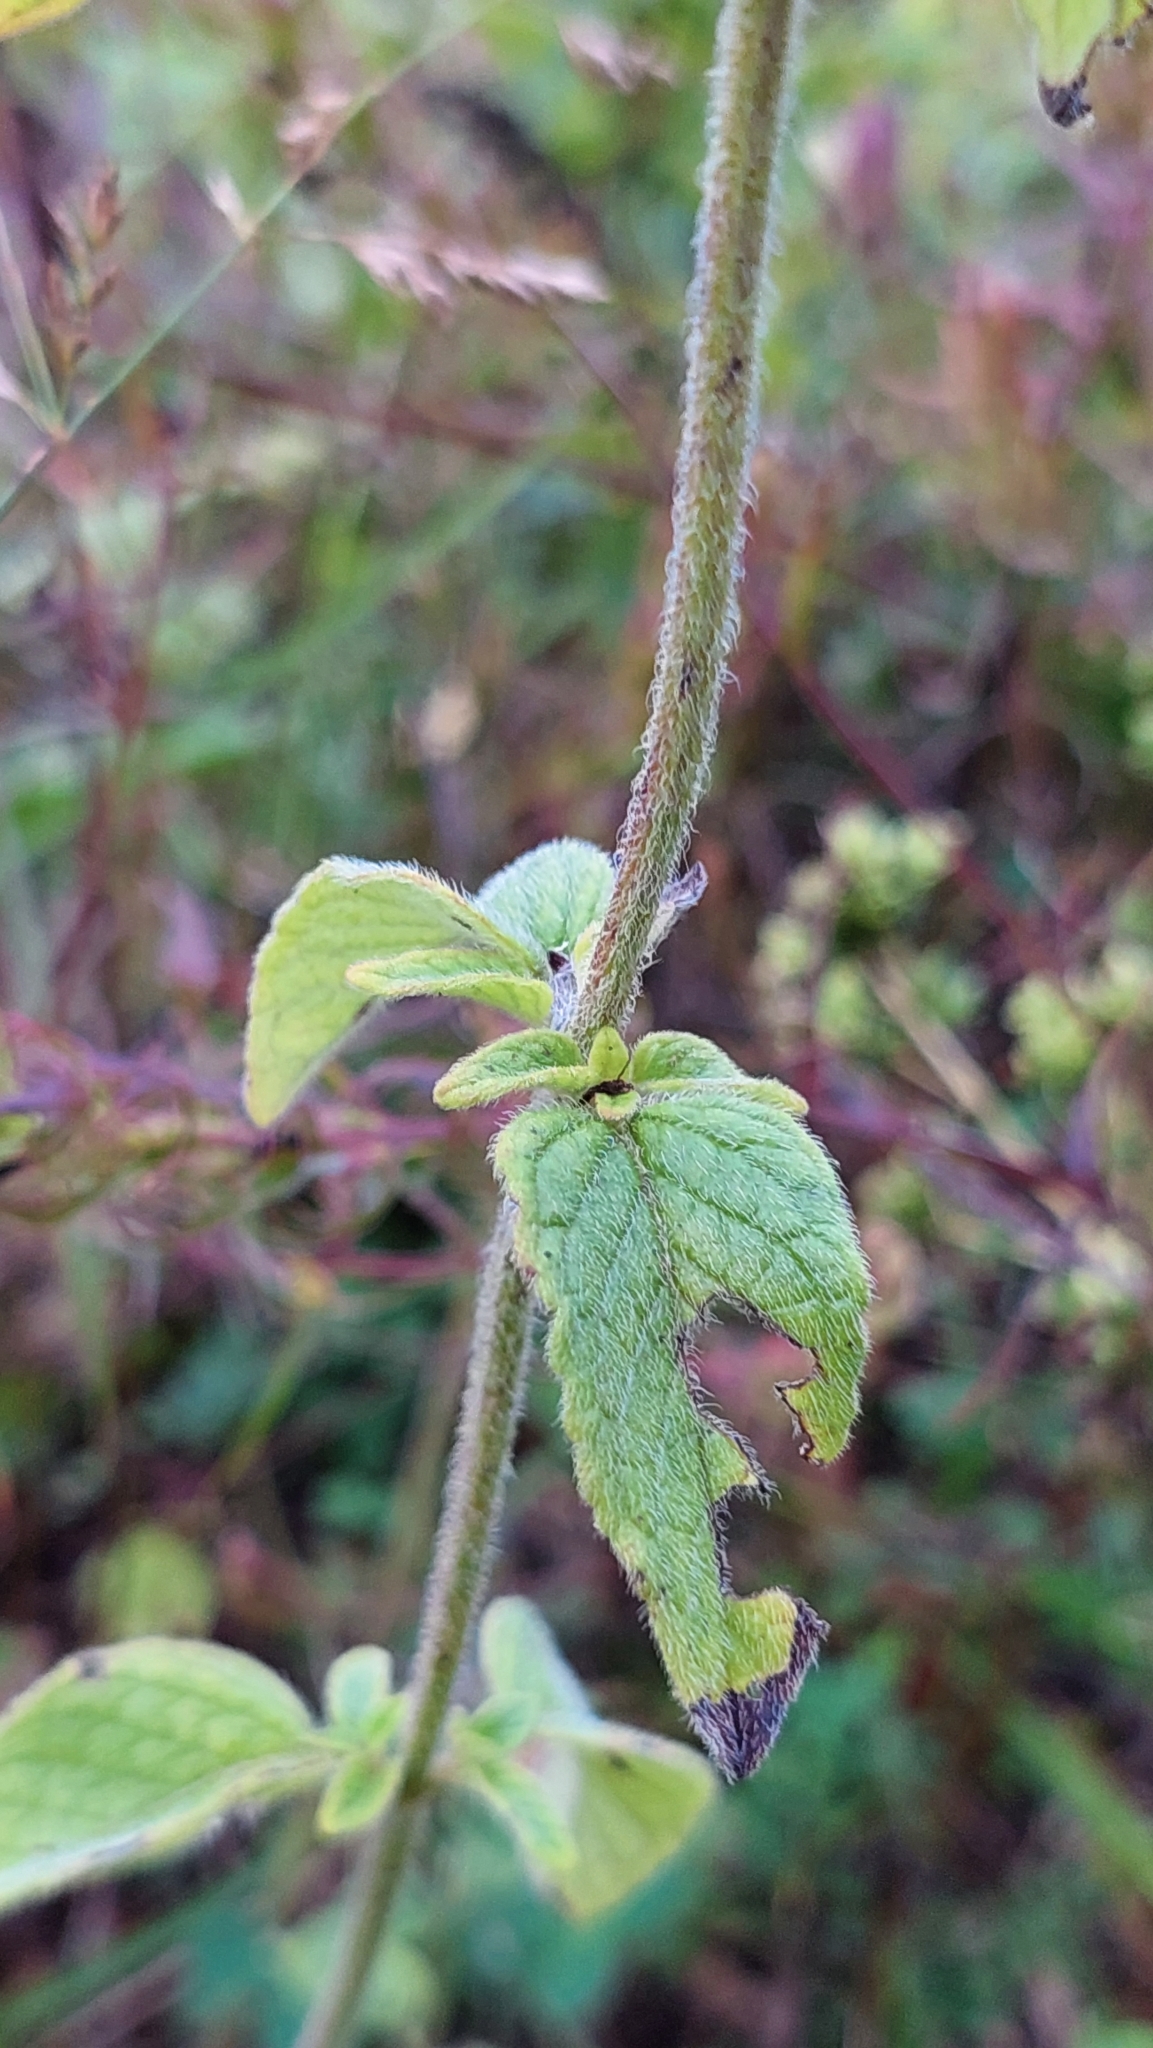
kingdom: Plantae
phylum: Tracheophyta
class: Magnoliopsida
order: Lamiales
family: Lamiaceae
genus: Clinopodium
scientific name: Clinopodium caucasicum
